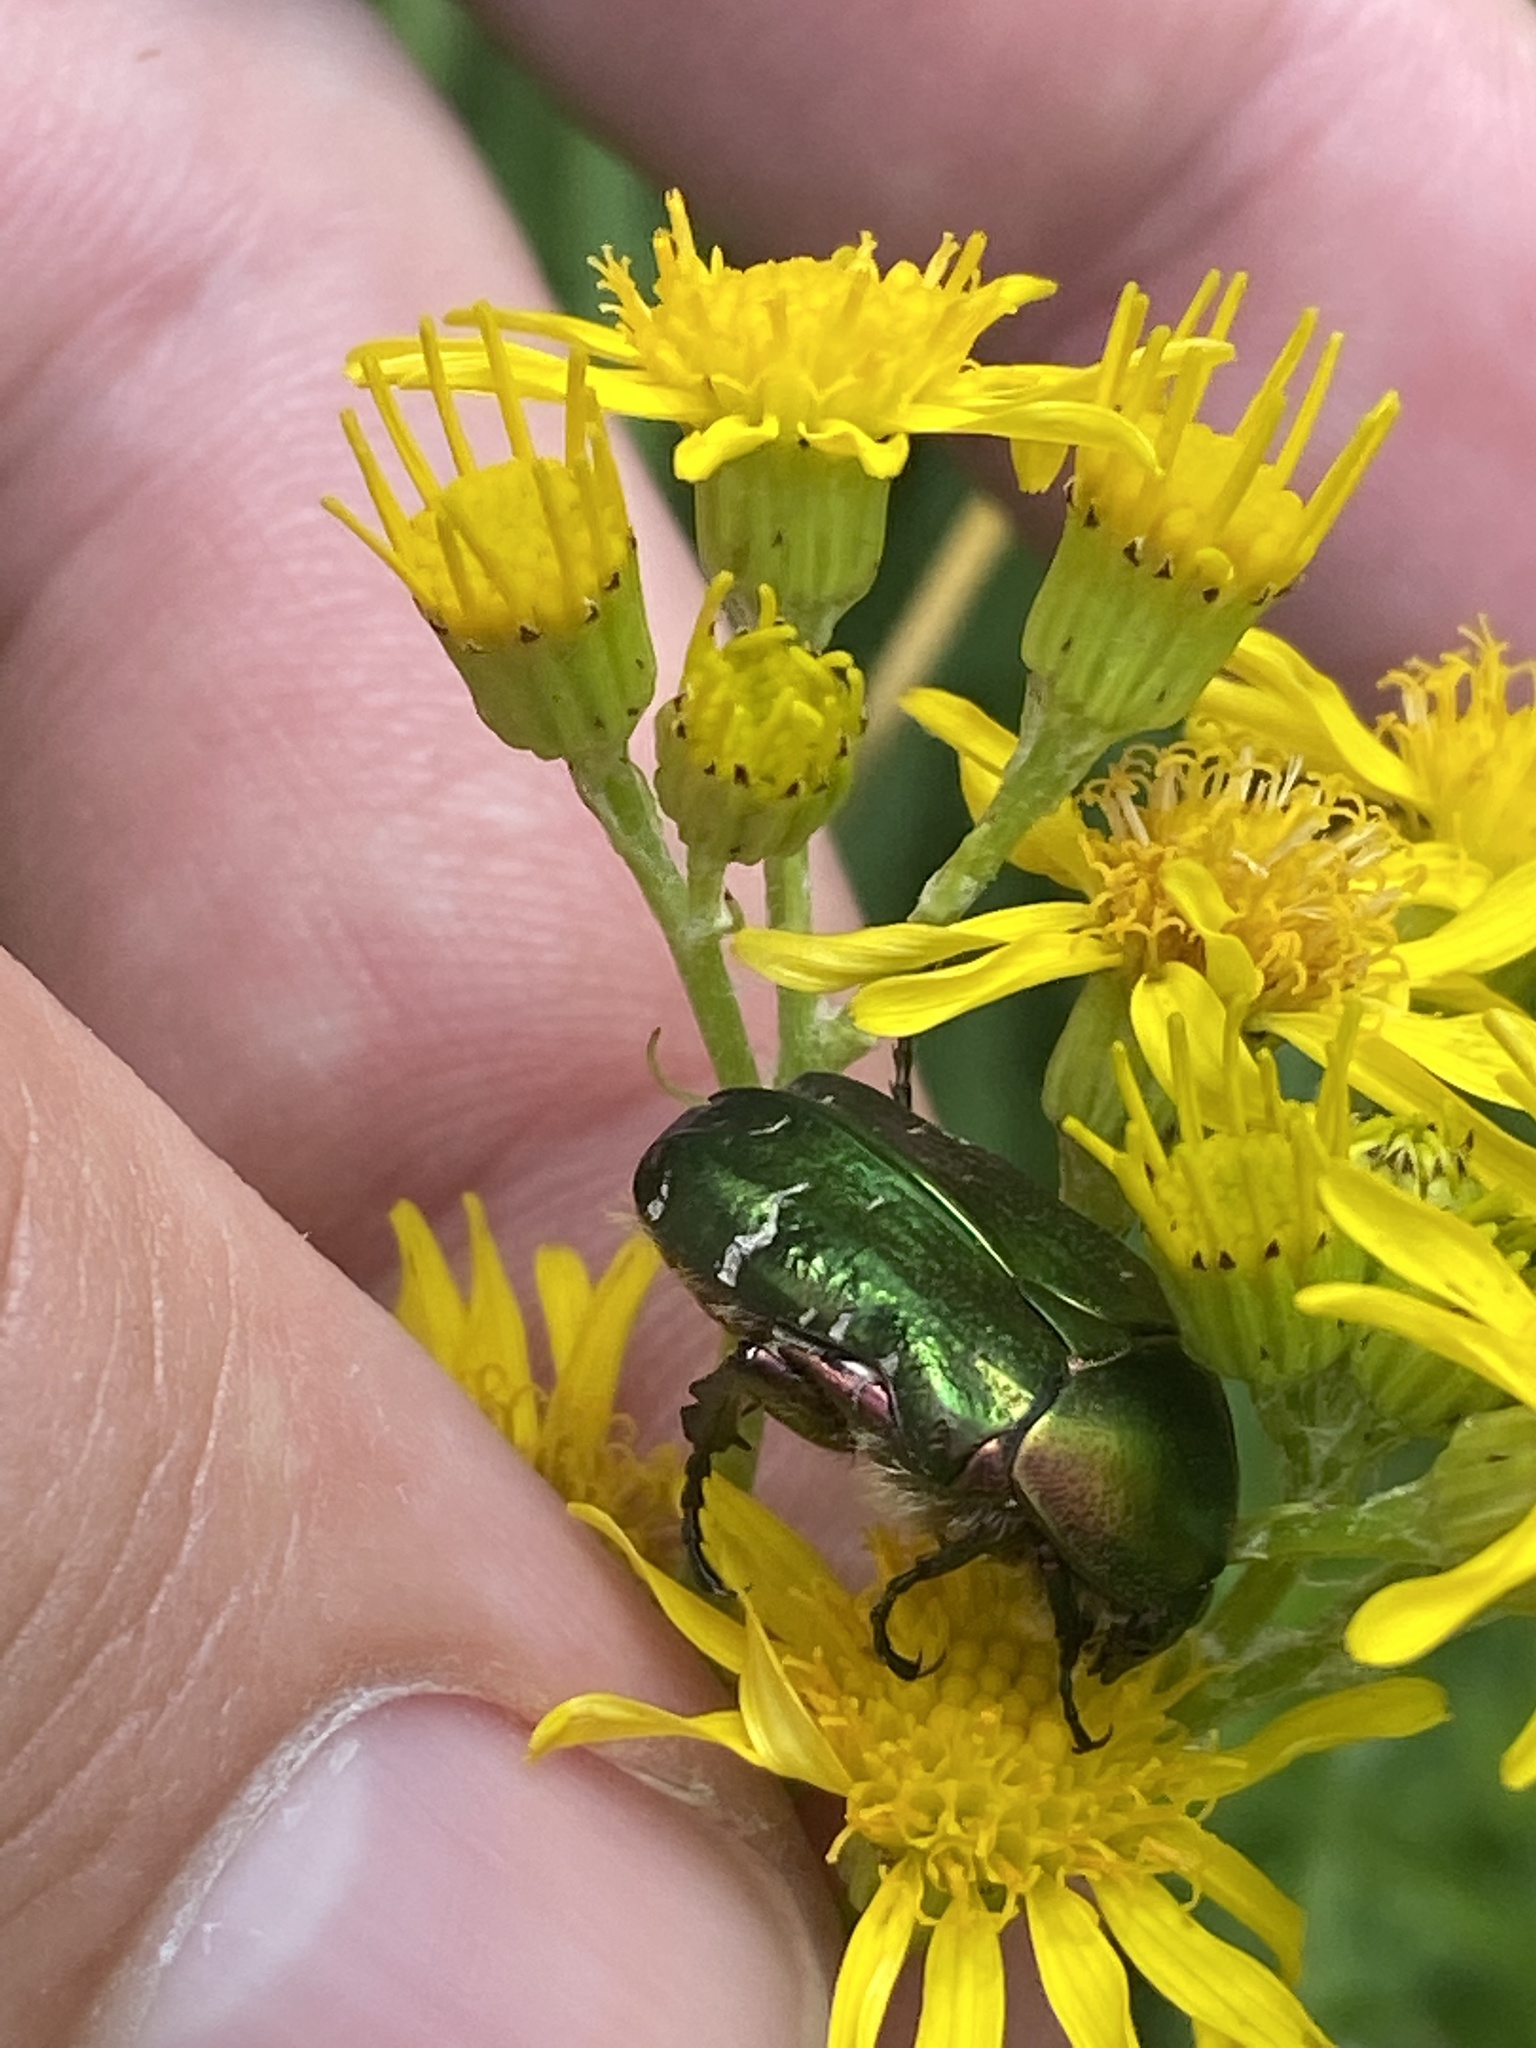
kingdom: Animalia
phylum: Arthropoda
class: Insecta
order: Coleoptera
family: Scarabaeidae
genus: Cetonia
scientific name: Cetonia aurata
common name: Rose chafer
